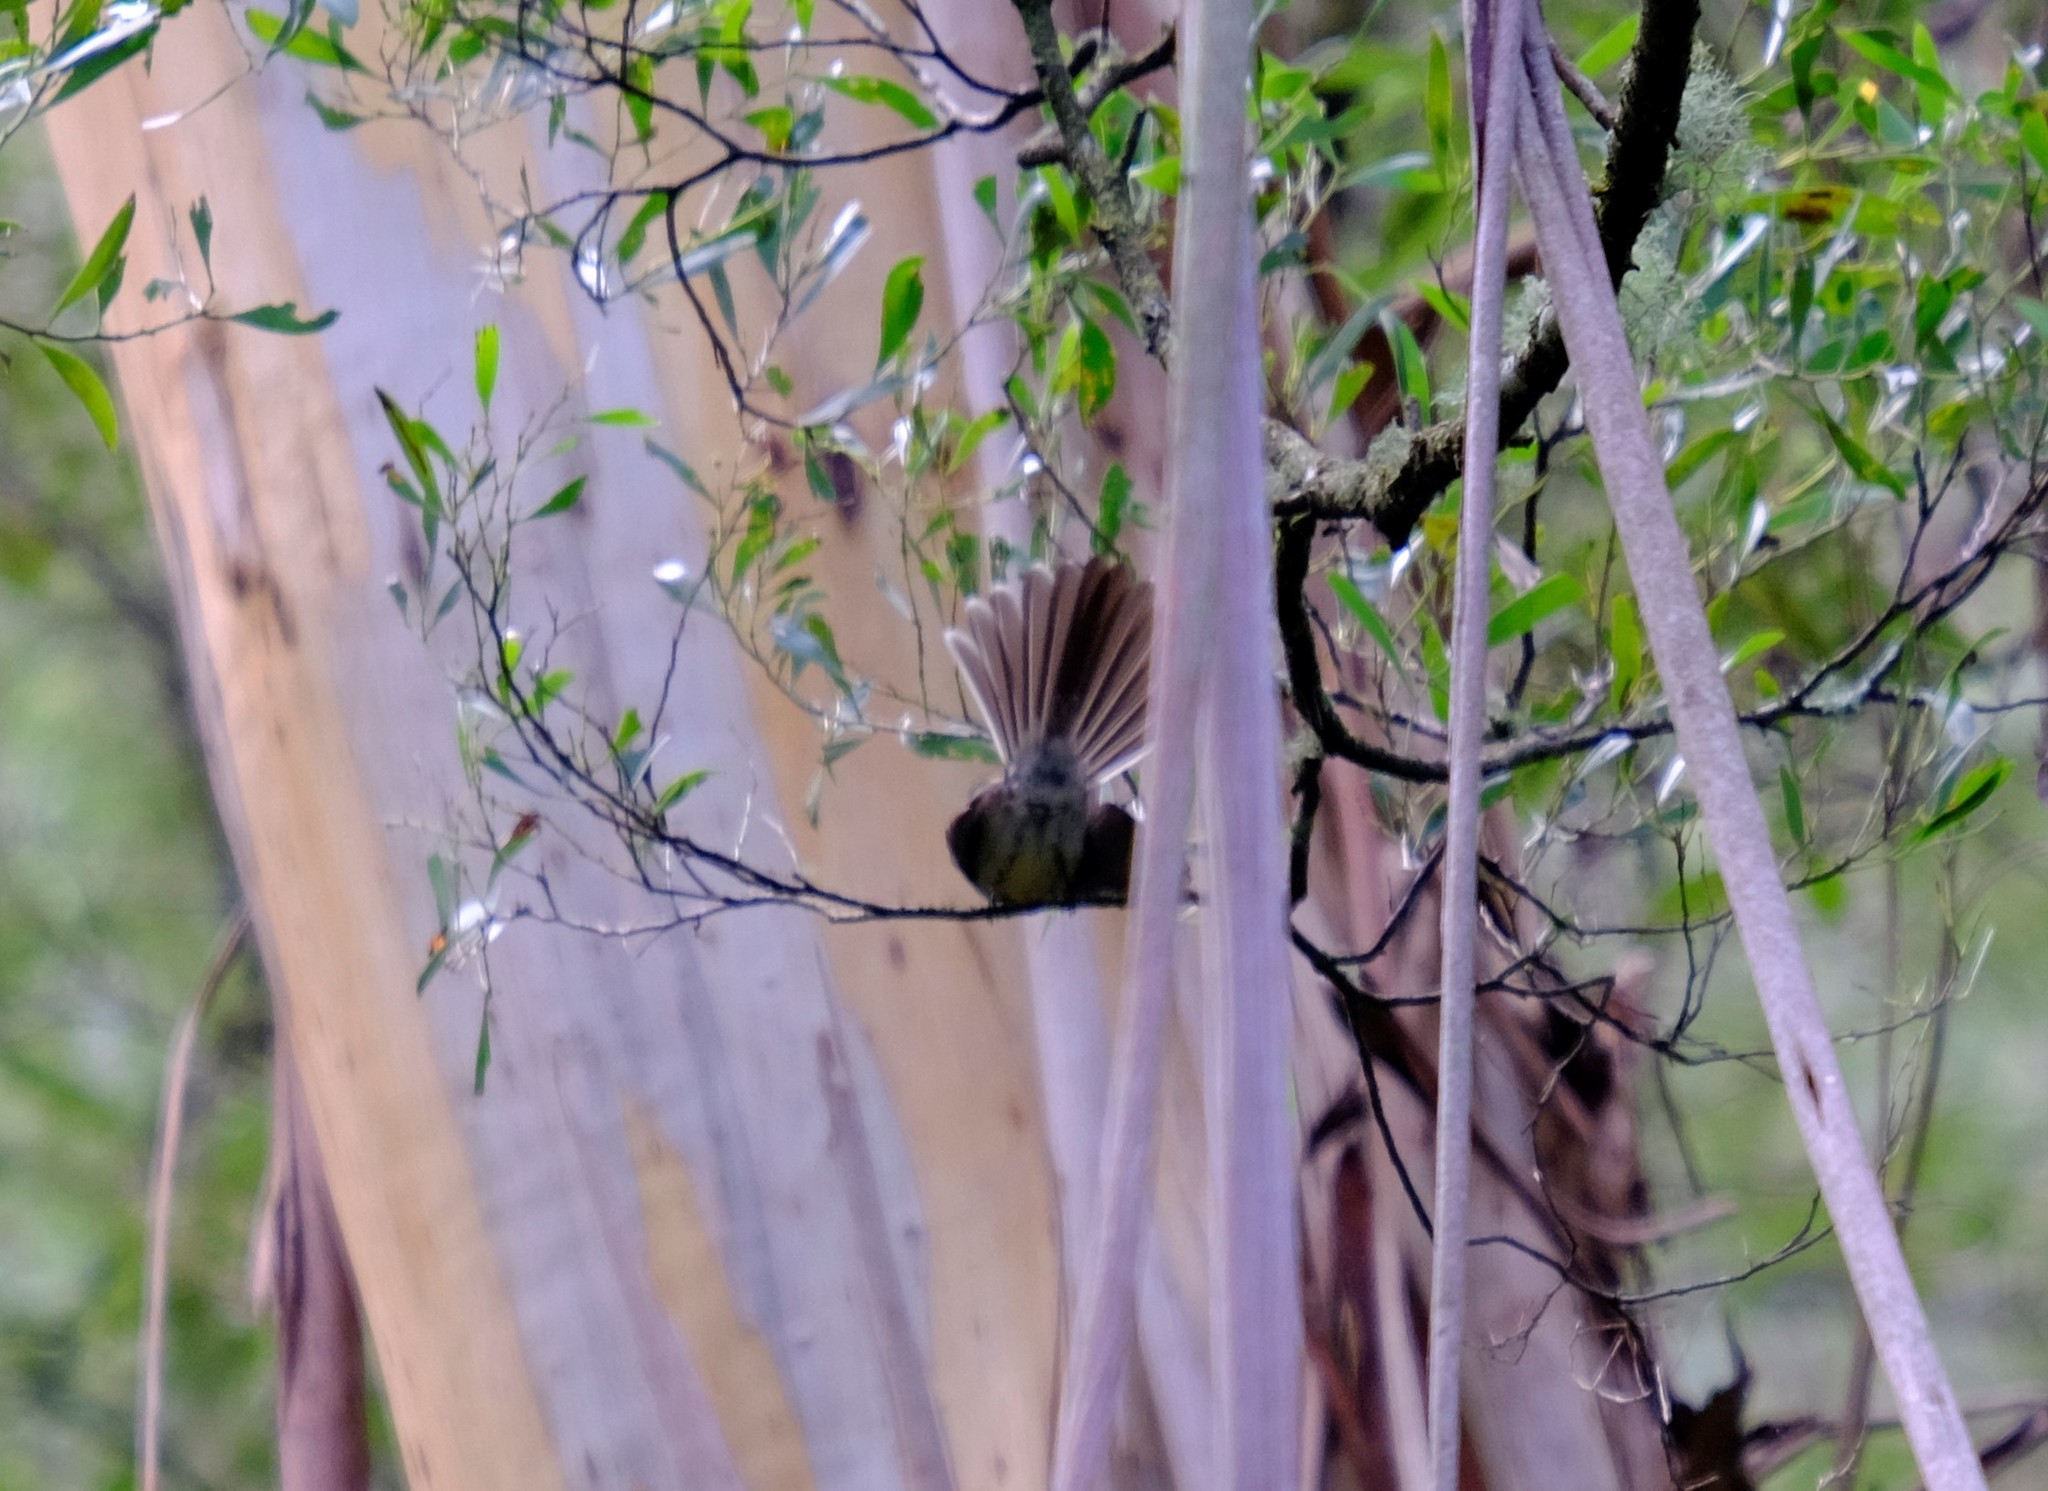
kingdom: Animalia
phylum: Chordata
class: Aves
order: Passeriformes
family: Rhipiduridae
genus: Rhipidura
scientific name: Rhipidura albiscapa
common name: Grey fantail
